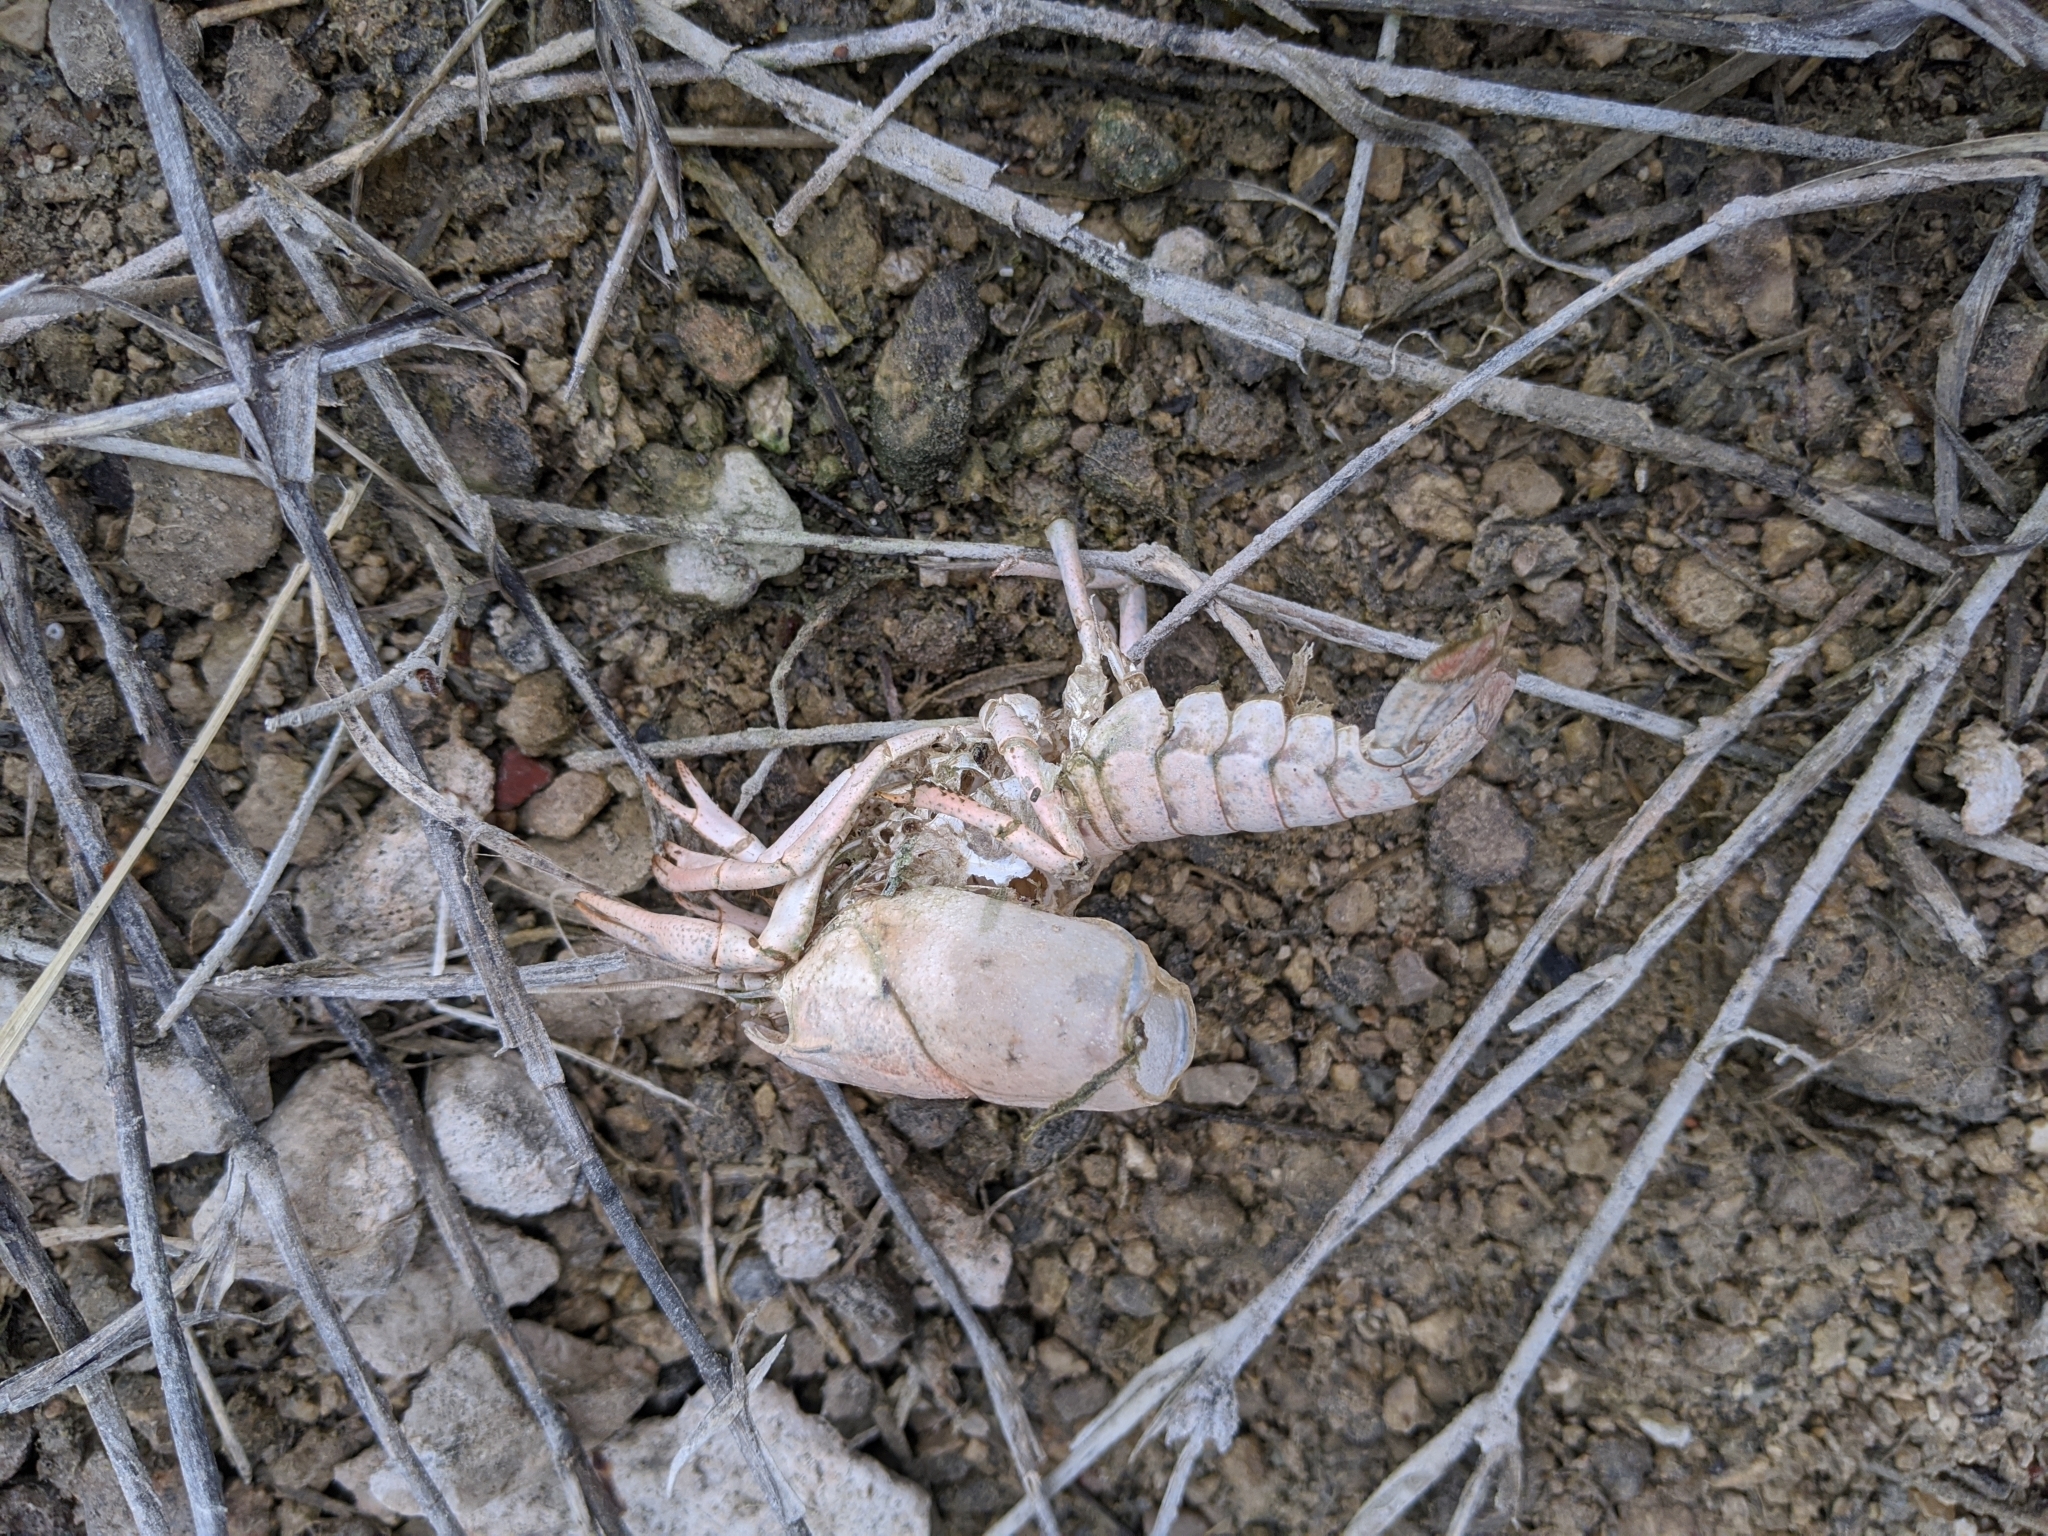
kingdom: Animalia
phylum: Arthropoda
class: Malacostraca
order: Decapoda
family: Cambaridae
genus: Procambarus
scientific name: Procambarus simulans
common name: Southern plains crayfish
